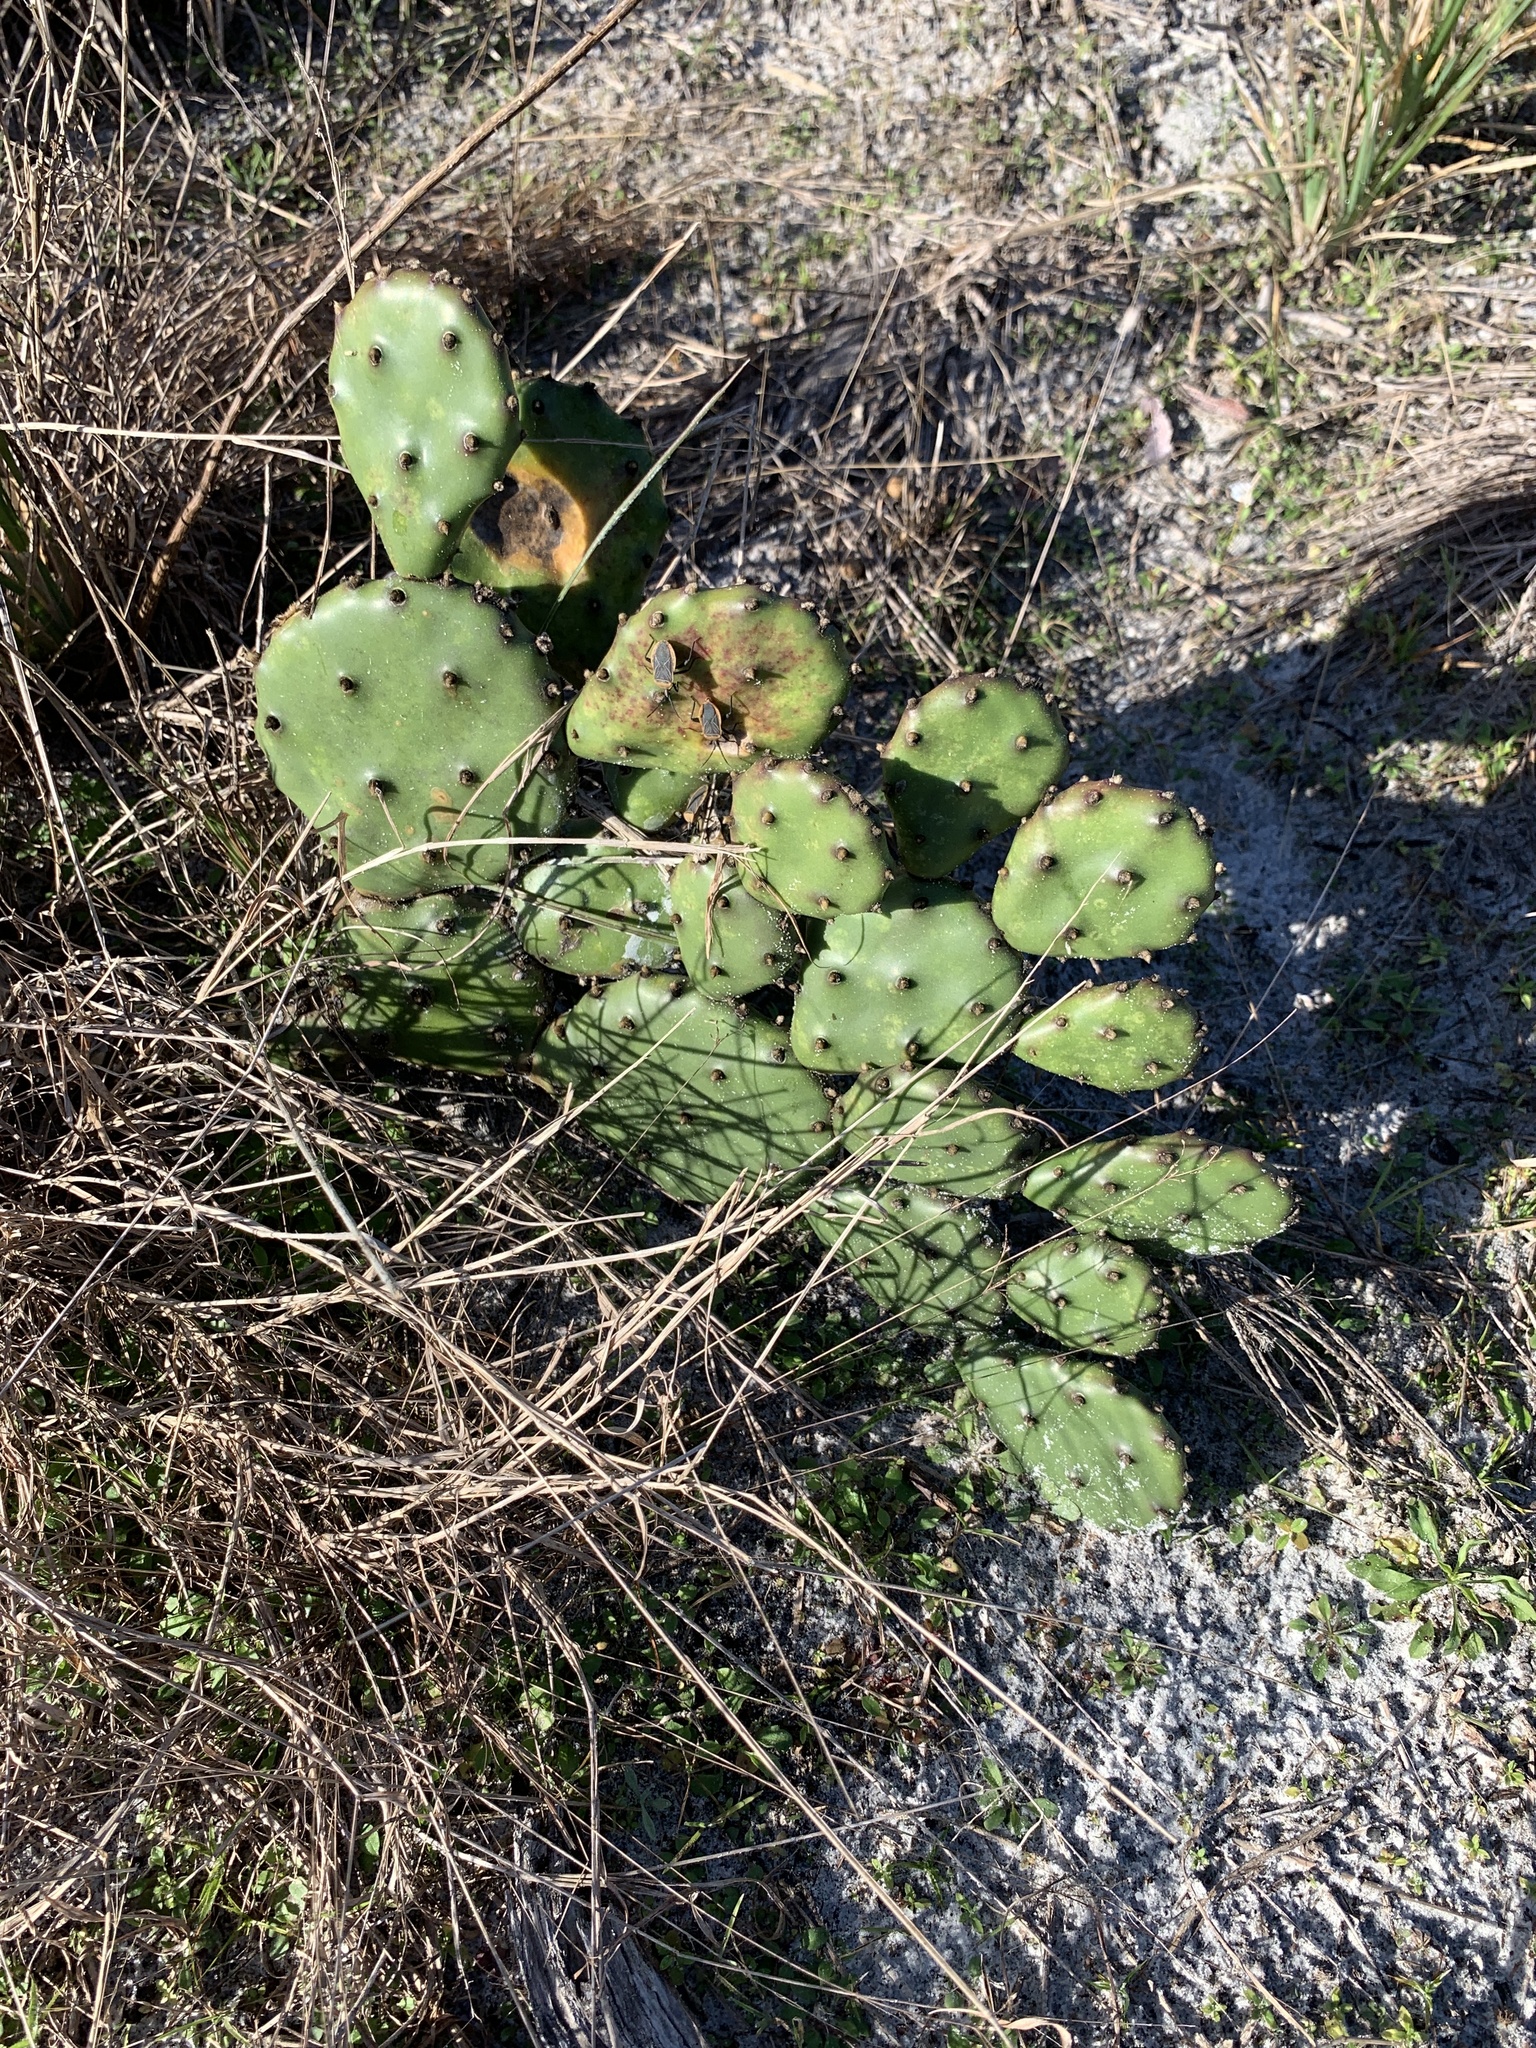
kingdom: Plantae
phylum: Tracheophyta
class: Magnoliopsida
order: Caryophyllales
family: Cactaceae
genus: Opuntia
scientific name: Opuntia austrina
